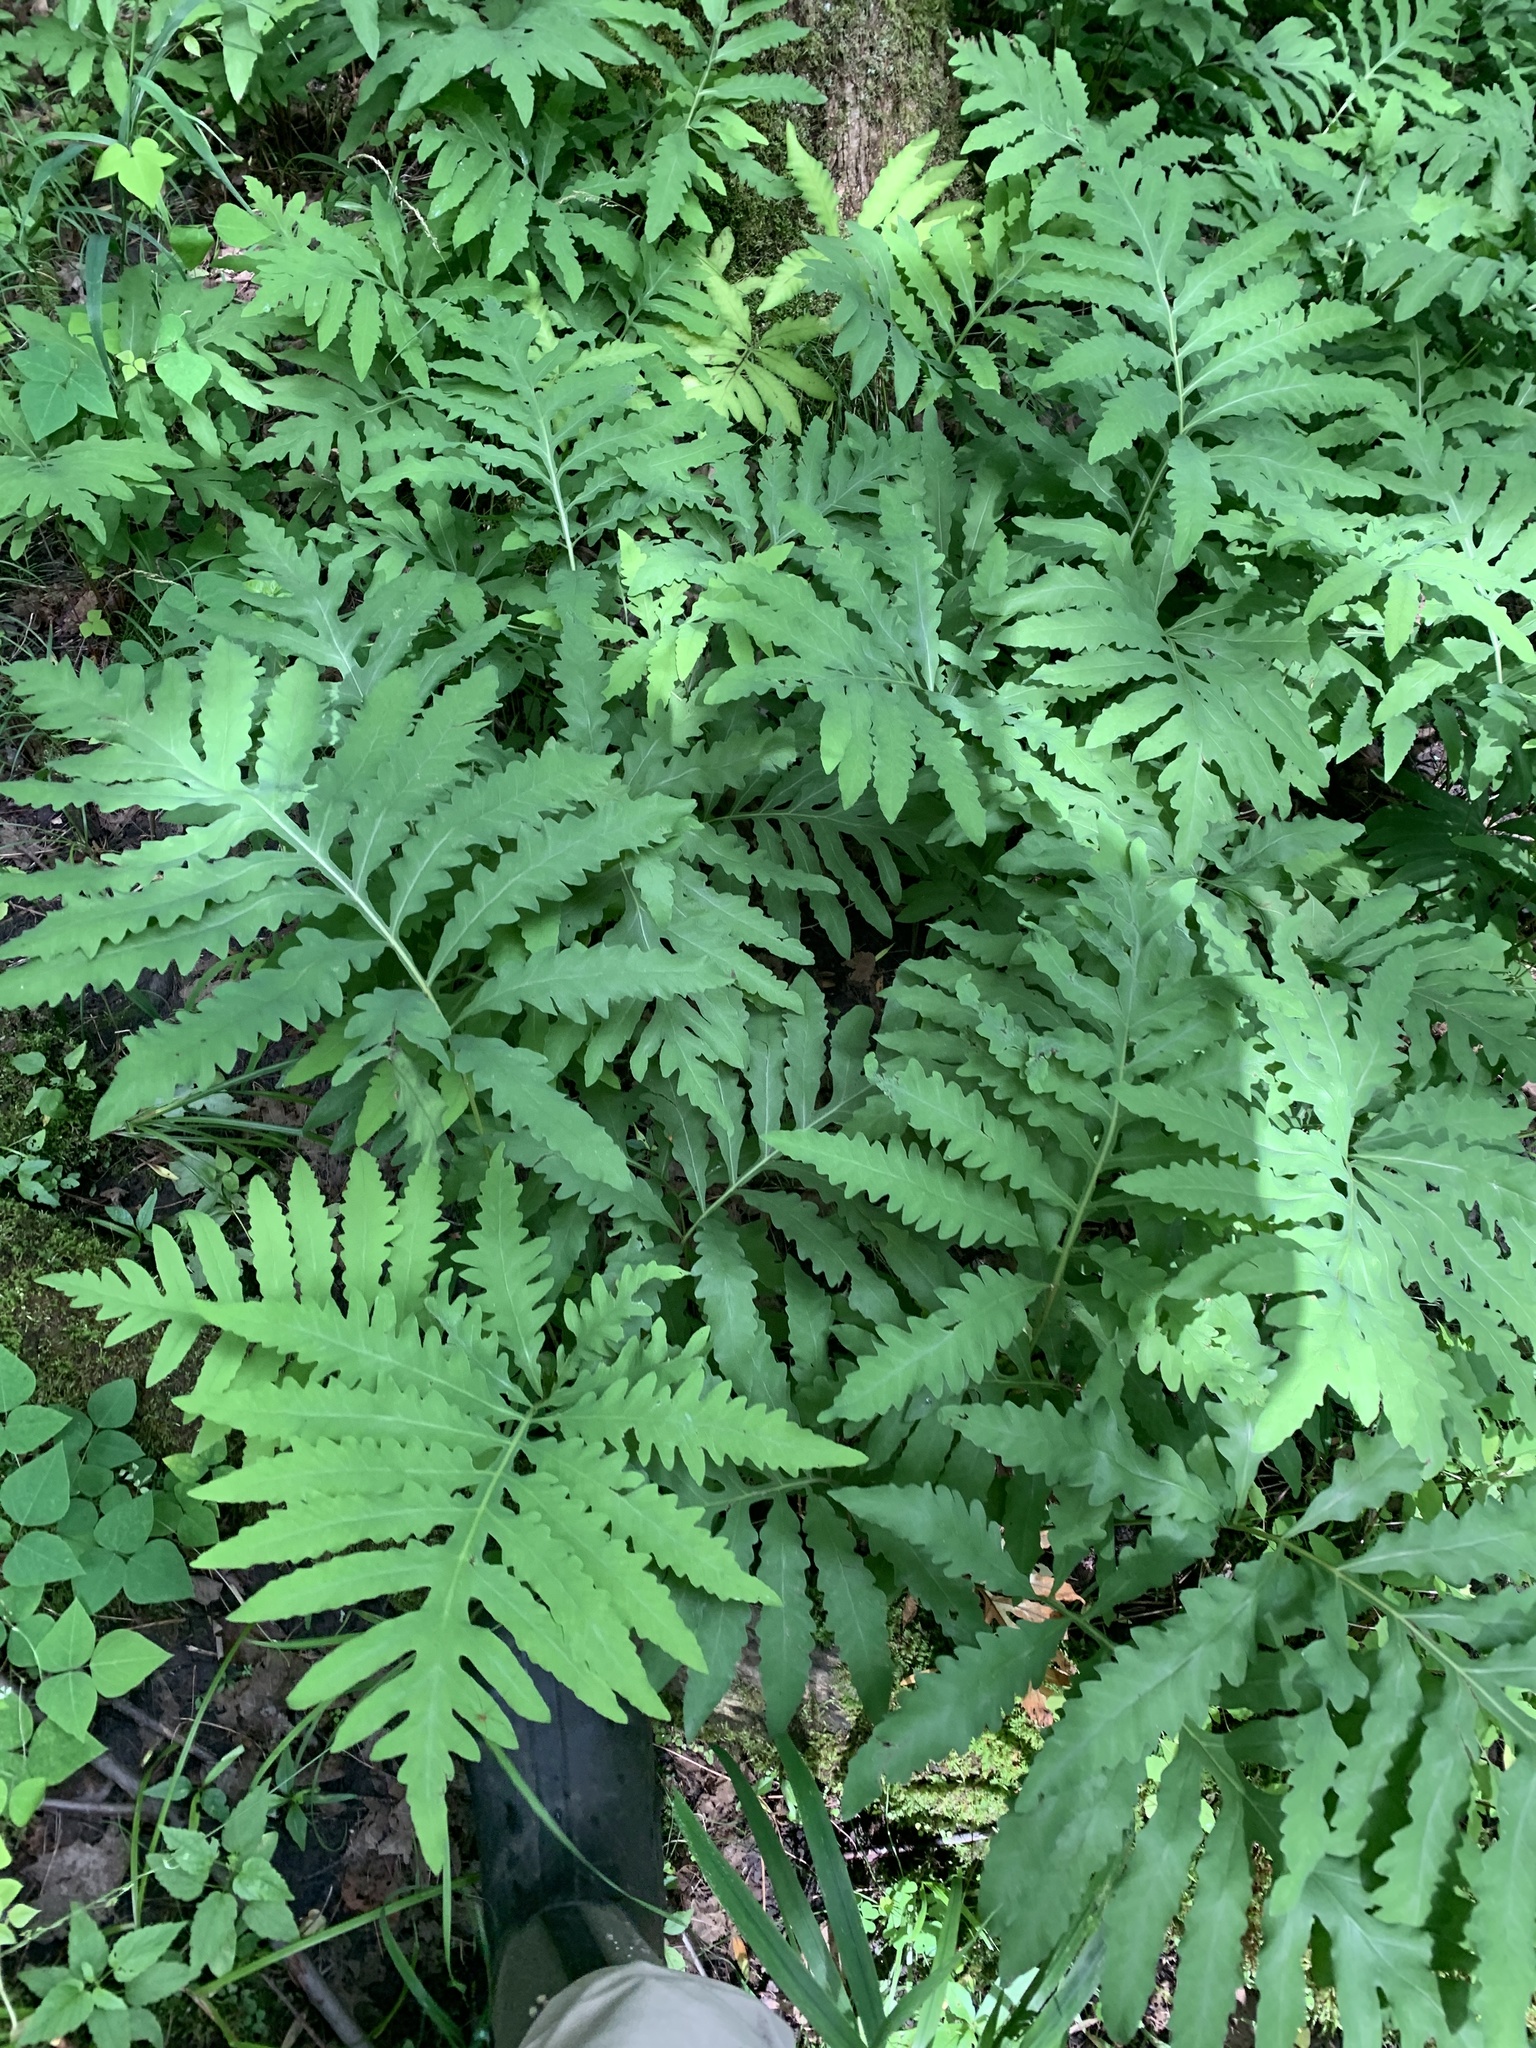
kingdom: Plantae
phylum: Tracheophyta
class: Polypodiopsida
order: Polypodiales
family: Onocleaceae
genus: Onoclea
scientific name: Onoclea sensibilis
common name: Sensitive fern
